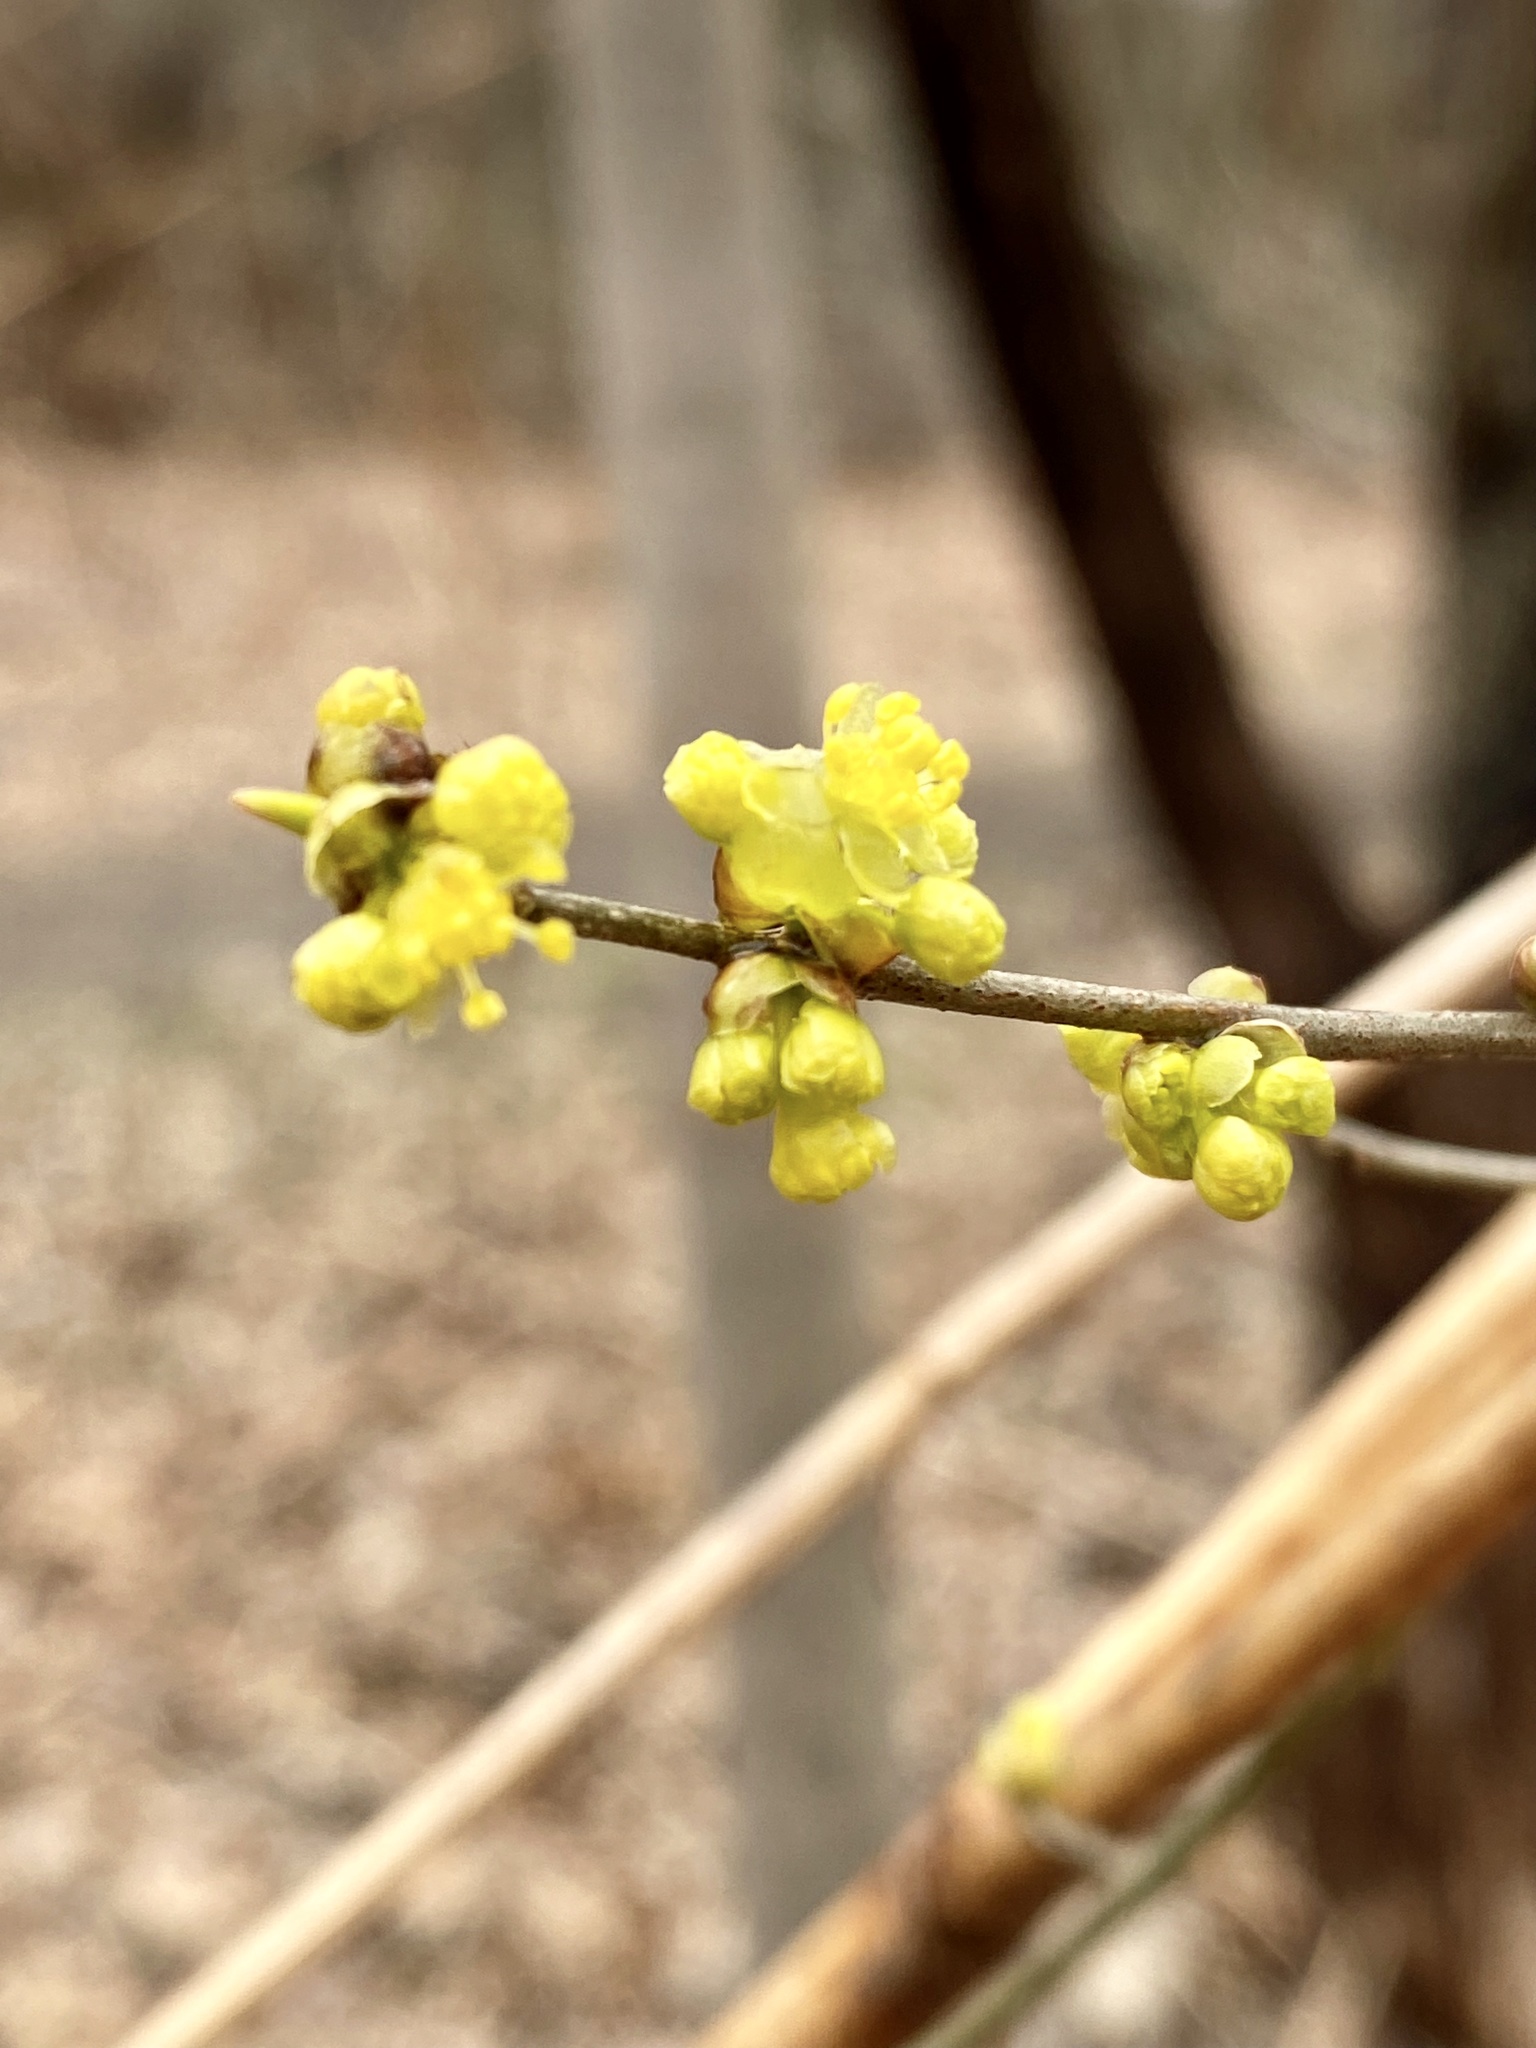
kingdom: Plantae
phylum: Tracheophyta
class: Magnoliopsida
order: Laurales
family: Lauraceae
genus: Lindera
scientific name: Lindera benzoin
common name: Spicebush
